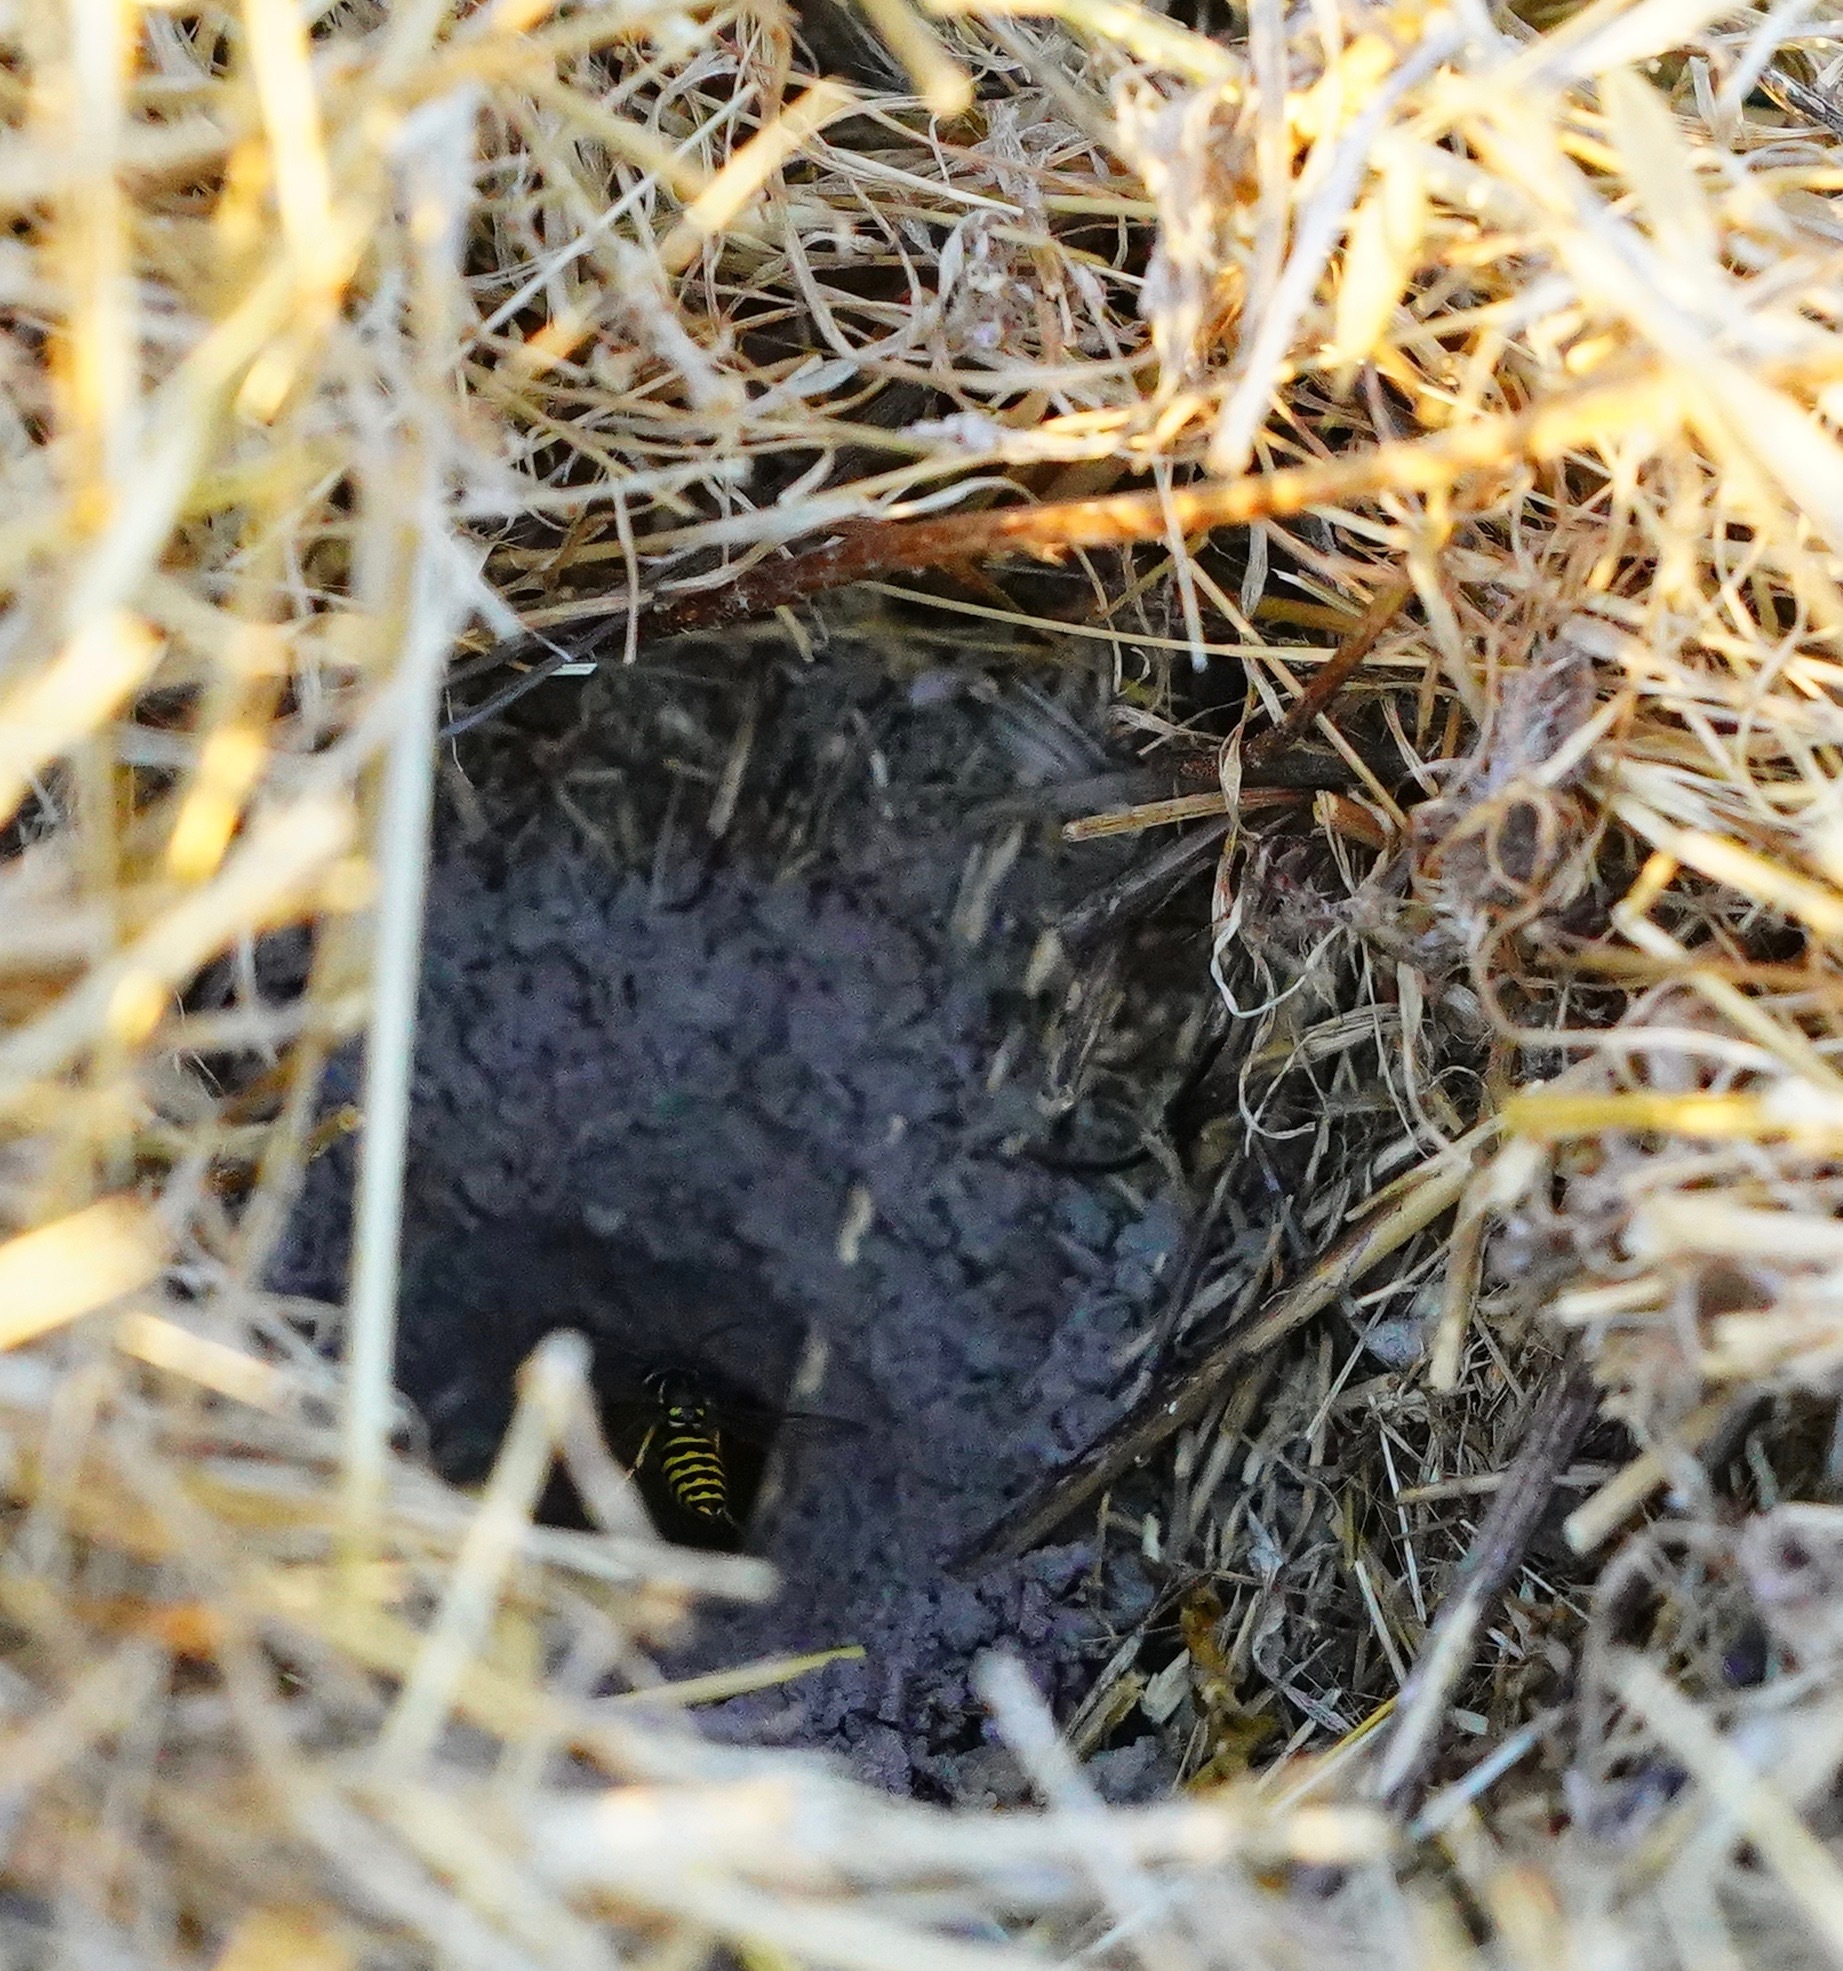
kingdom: Animalia
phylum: Arthropoda
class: Insecta
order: Hymenoptera
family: Vespidae
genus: Vespula
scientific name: Vespula alascensis
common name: Alaska yellowjacket
